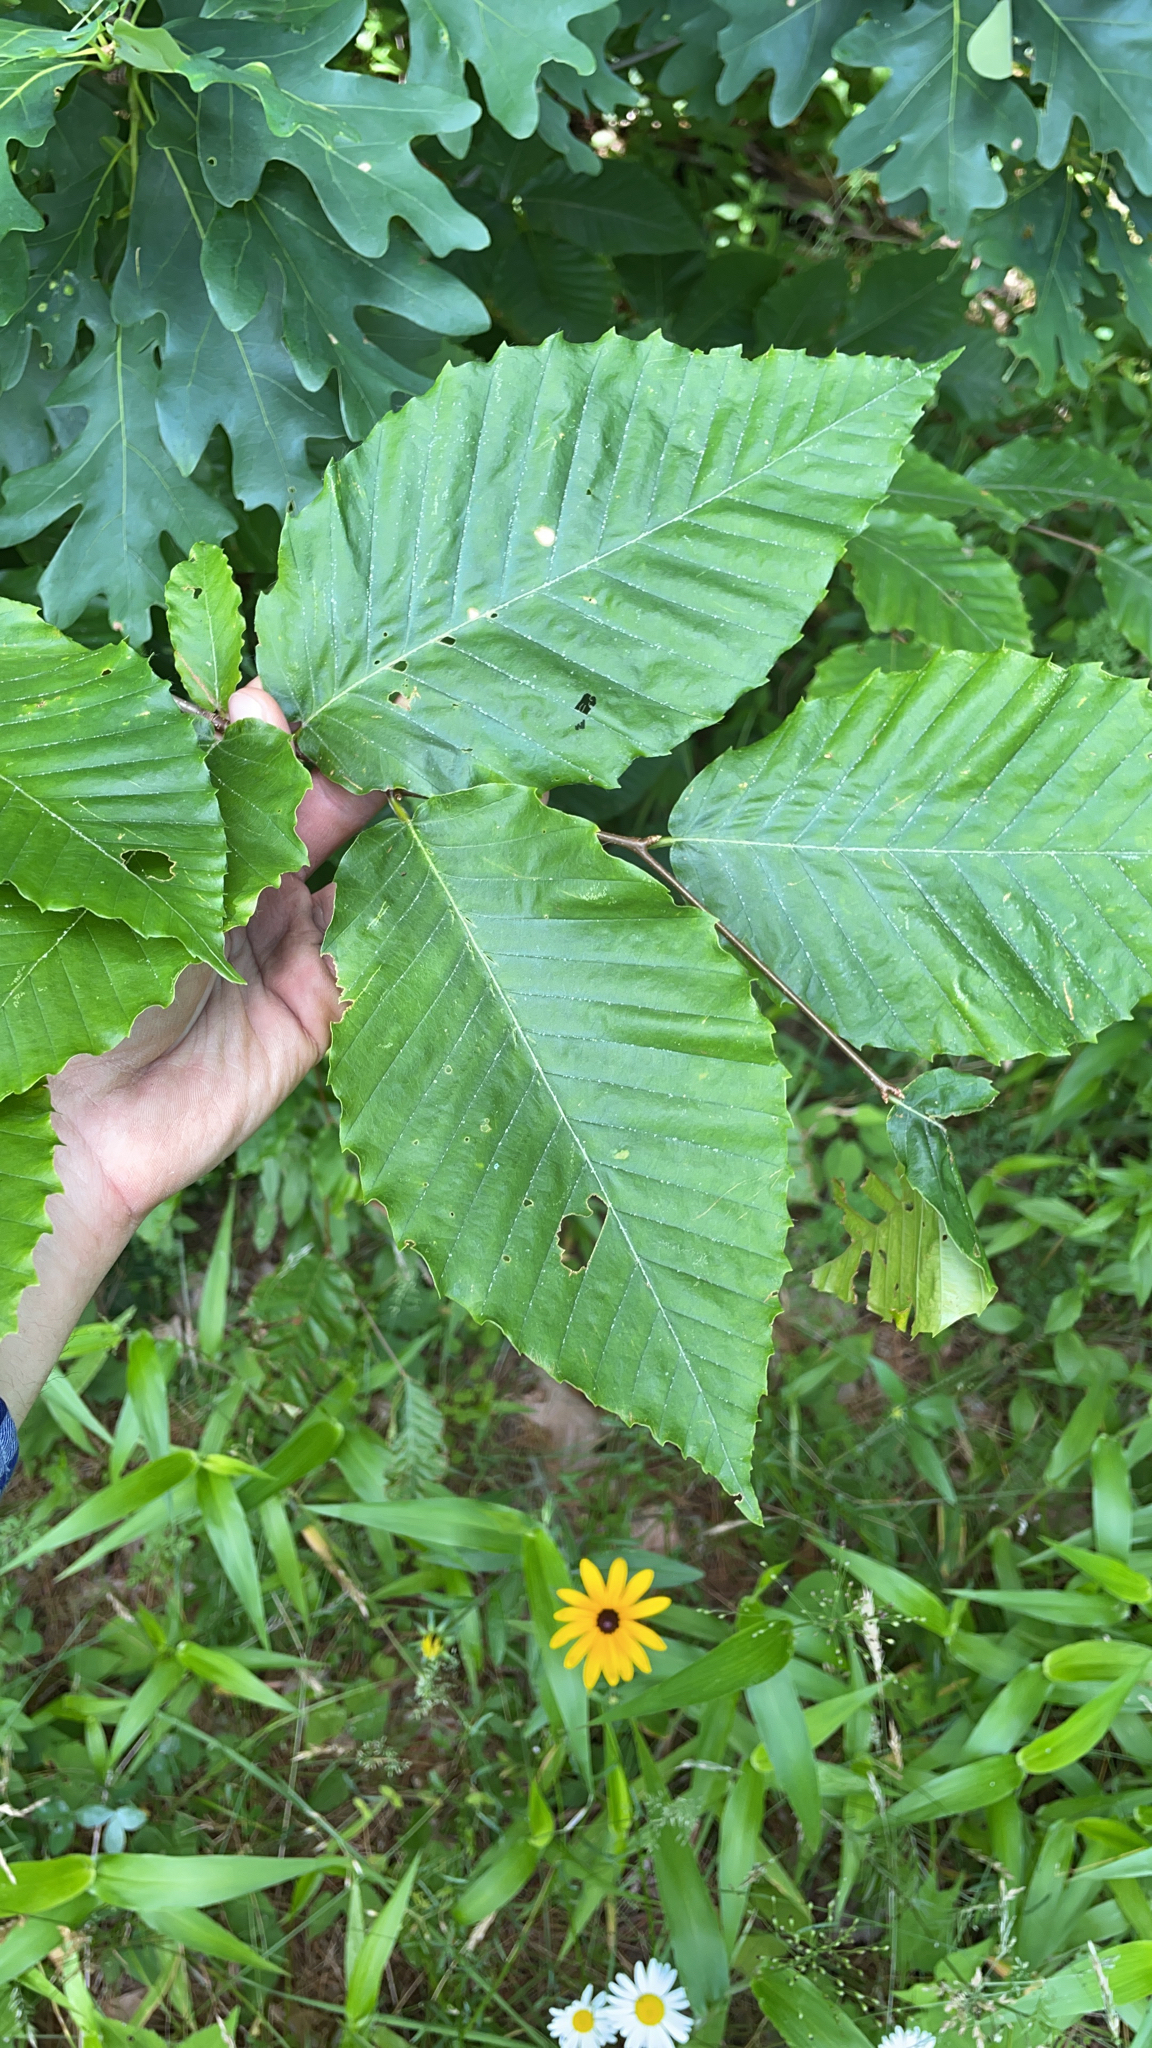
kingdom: Plantae
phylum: Tracheophyta
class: Magnoliopsida
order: Fagales
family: Fagaceae
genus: Fagus
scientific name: Fagus grandifolia
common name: American beech
